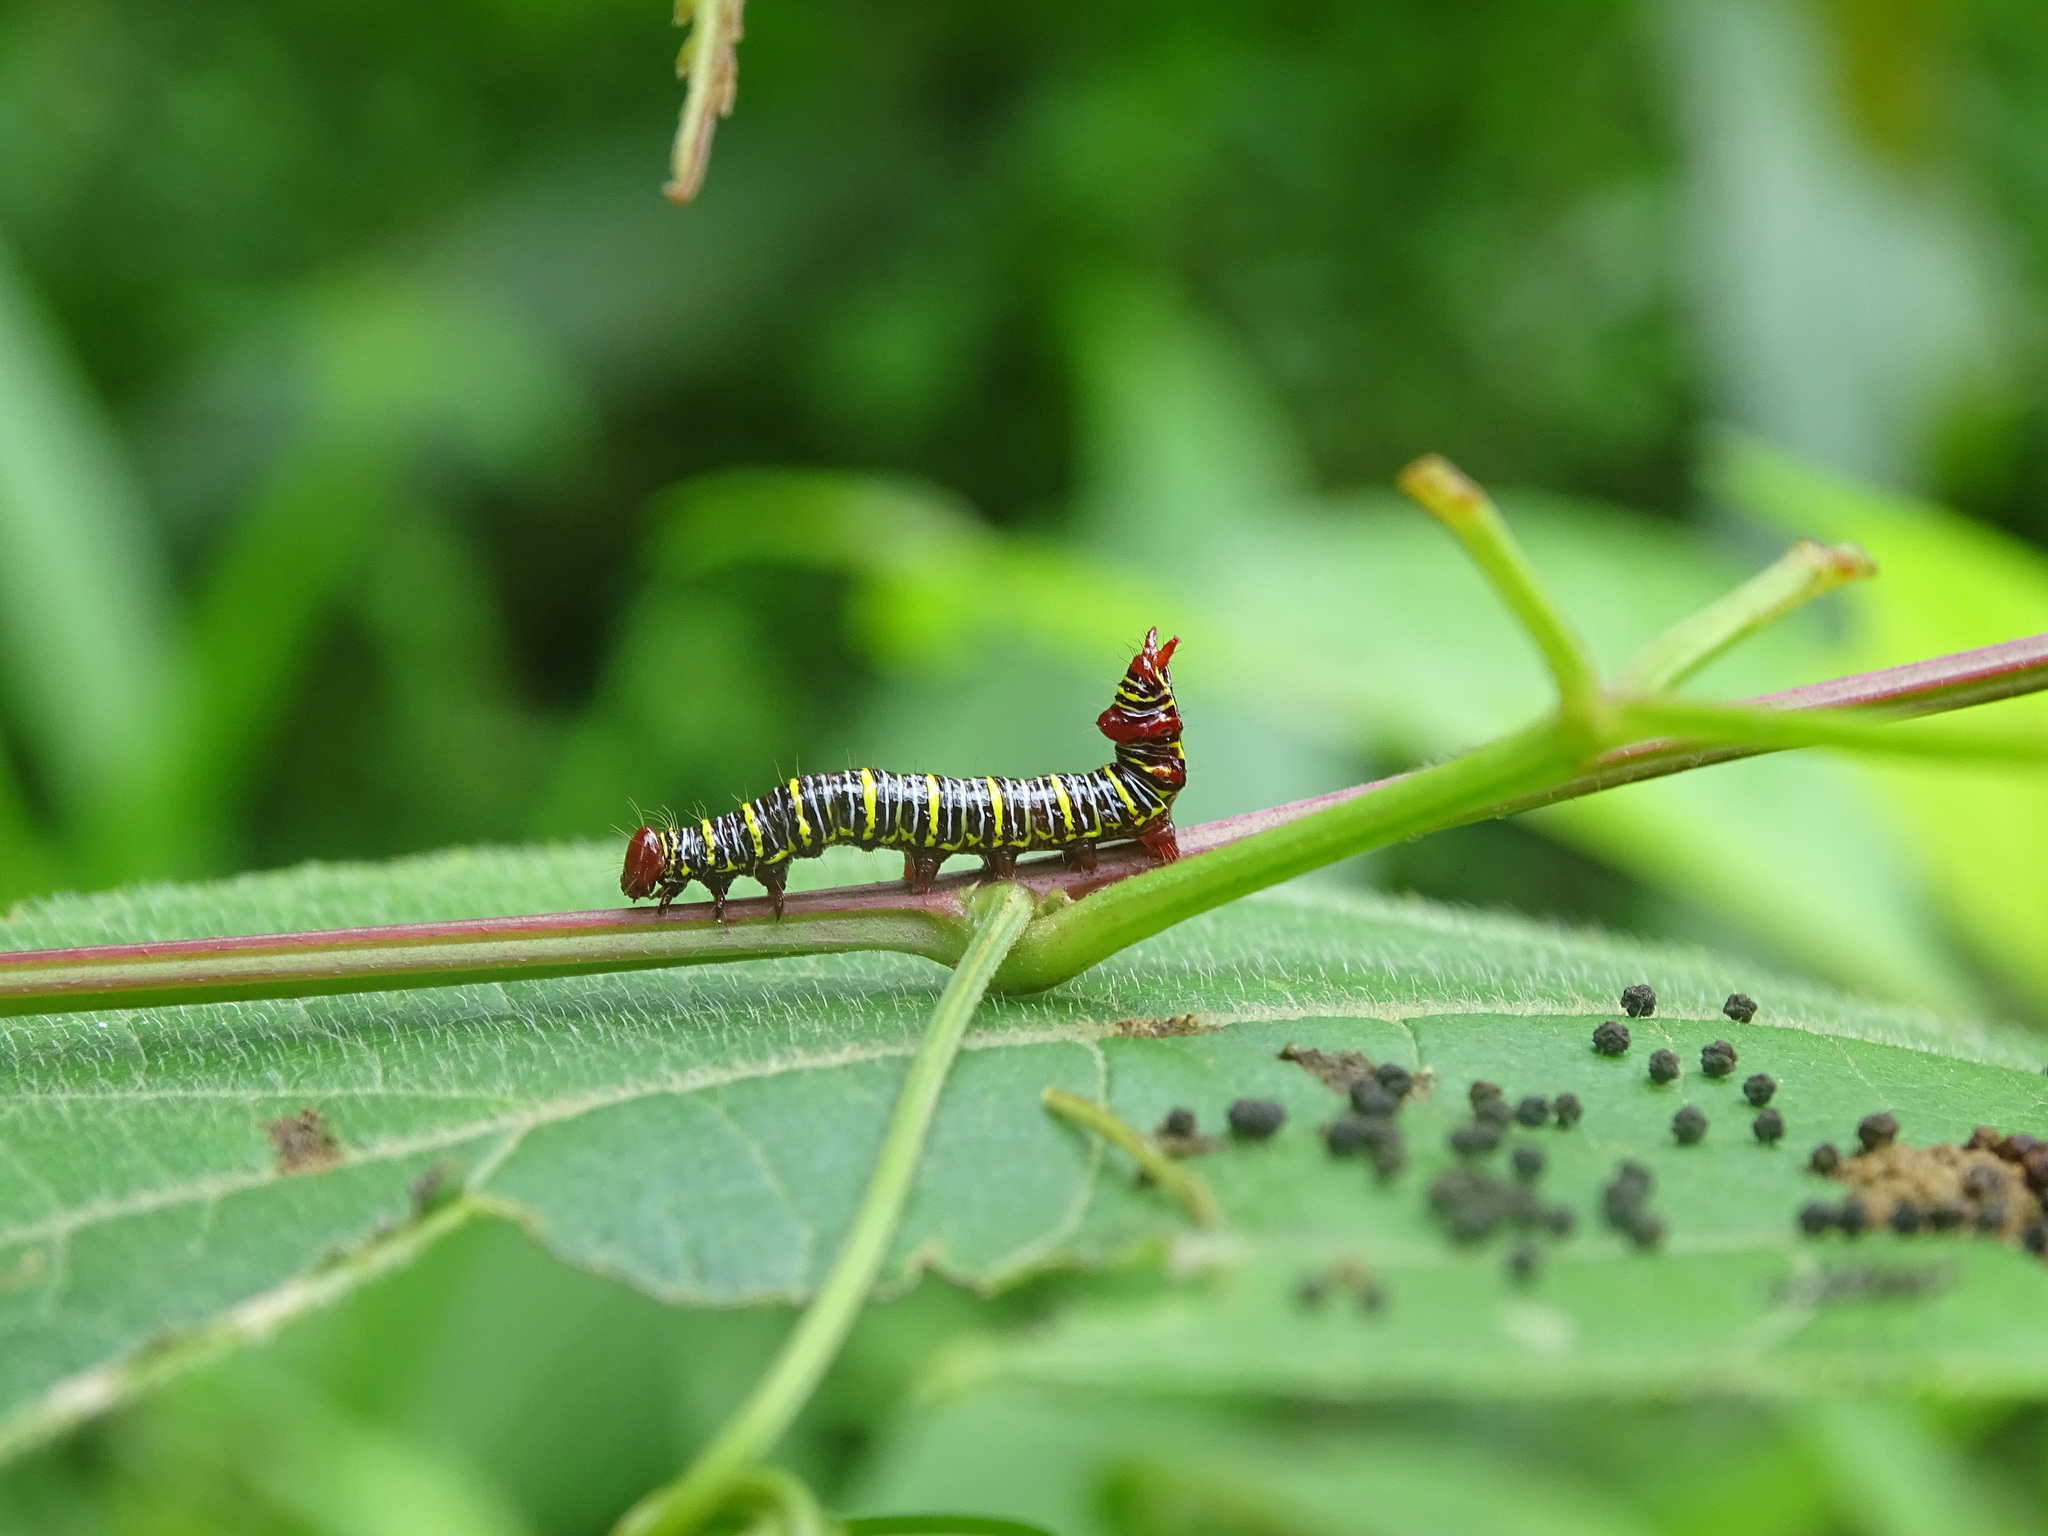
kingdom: Animalia
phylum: Arthropoda
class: Insecta
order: Lepidoptera
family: Notodontidae
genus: Didugua
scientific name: Didugua argentilinea
